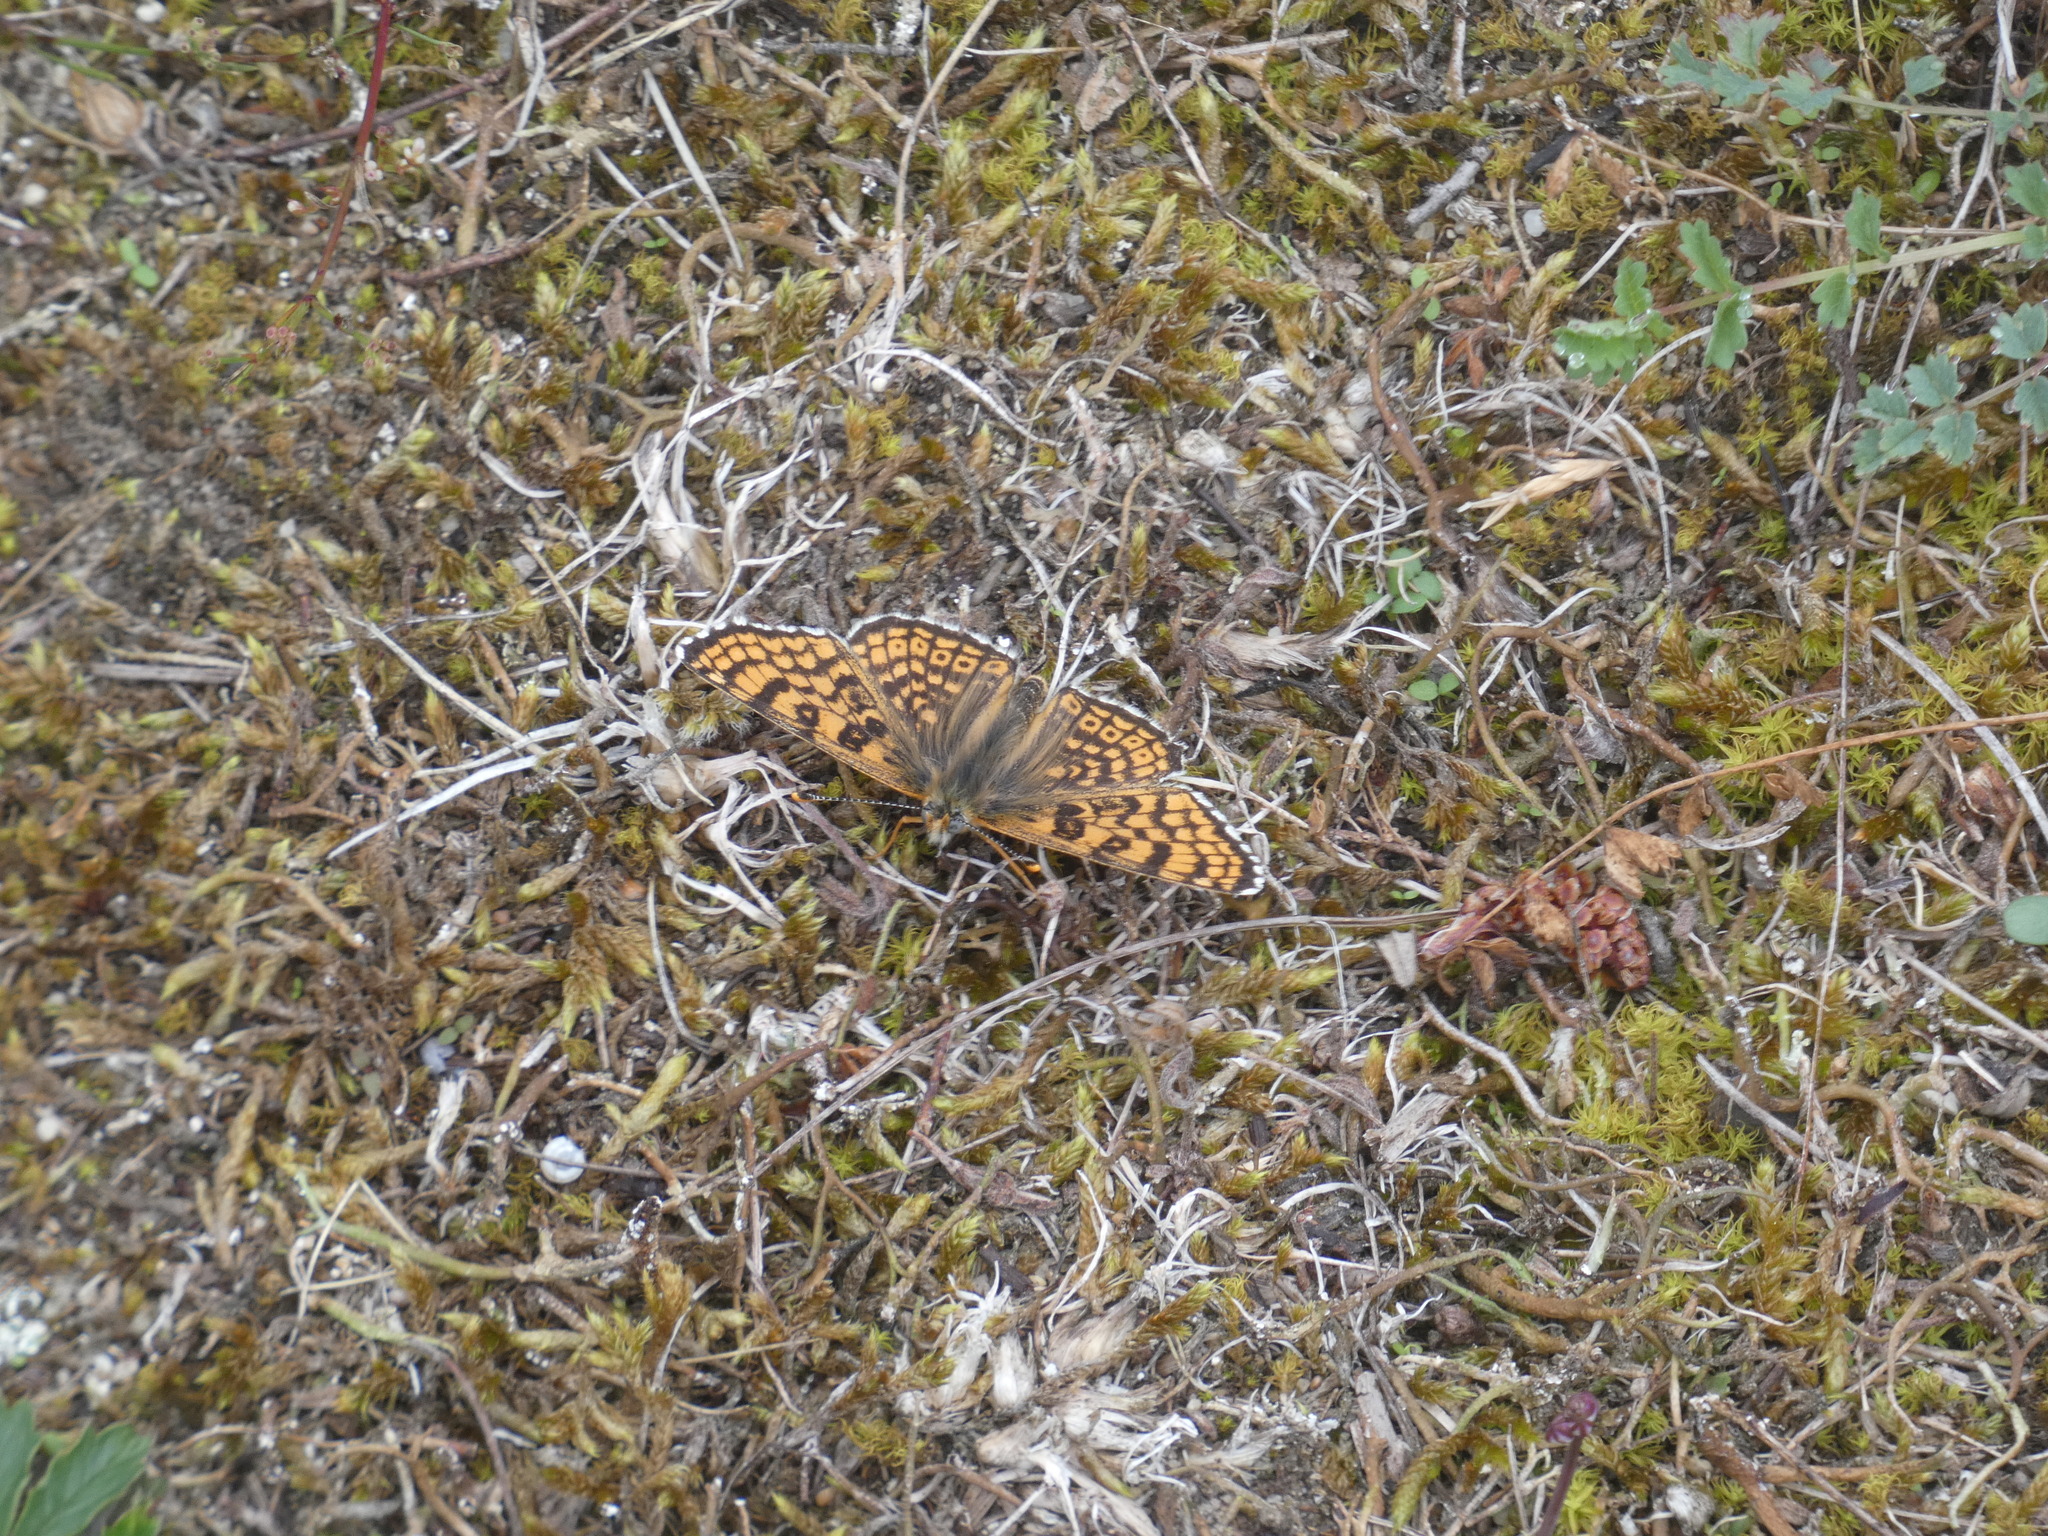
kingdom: Animalia
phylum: Arthropoda
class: Insecta
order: Lepidoptera
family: Nymphalidae
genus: Melitaea
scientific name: Melitaea cinxia
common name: Glanville fritillary
